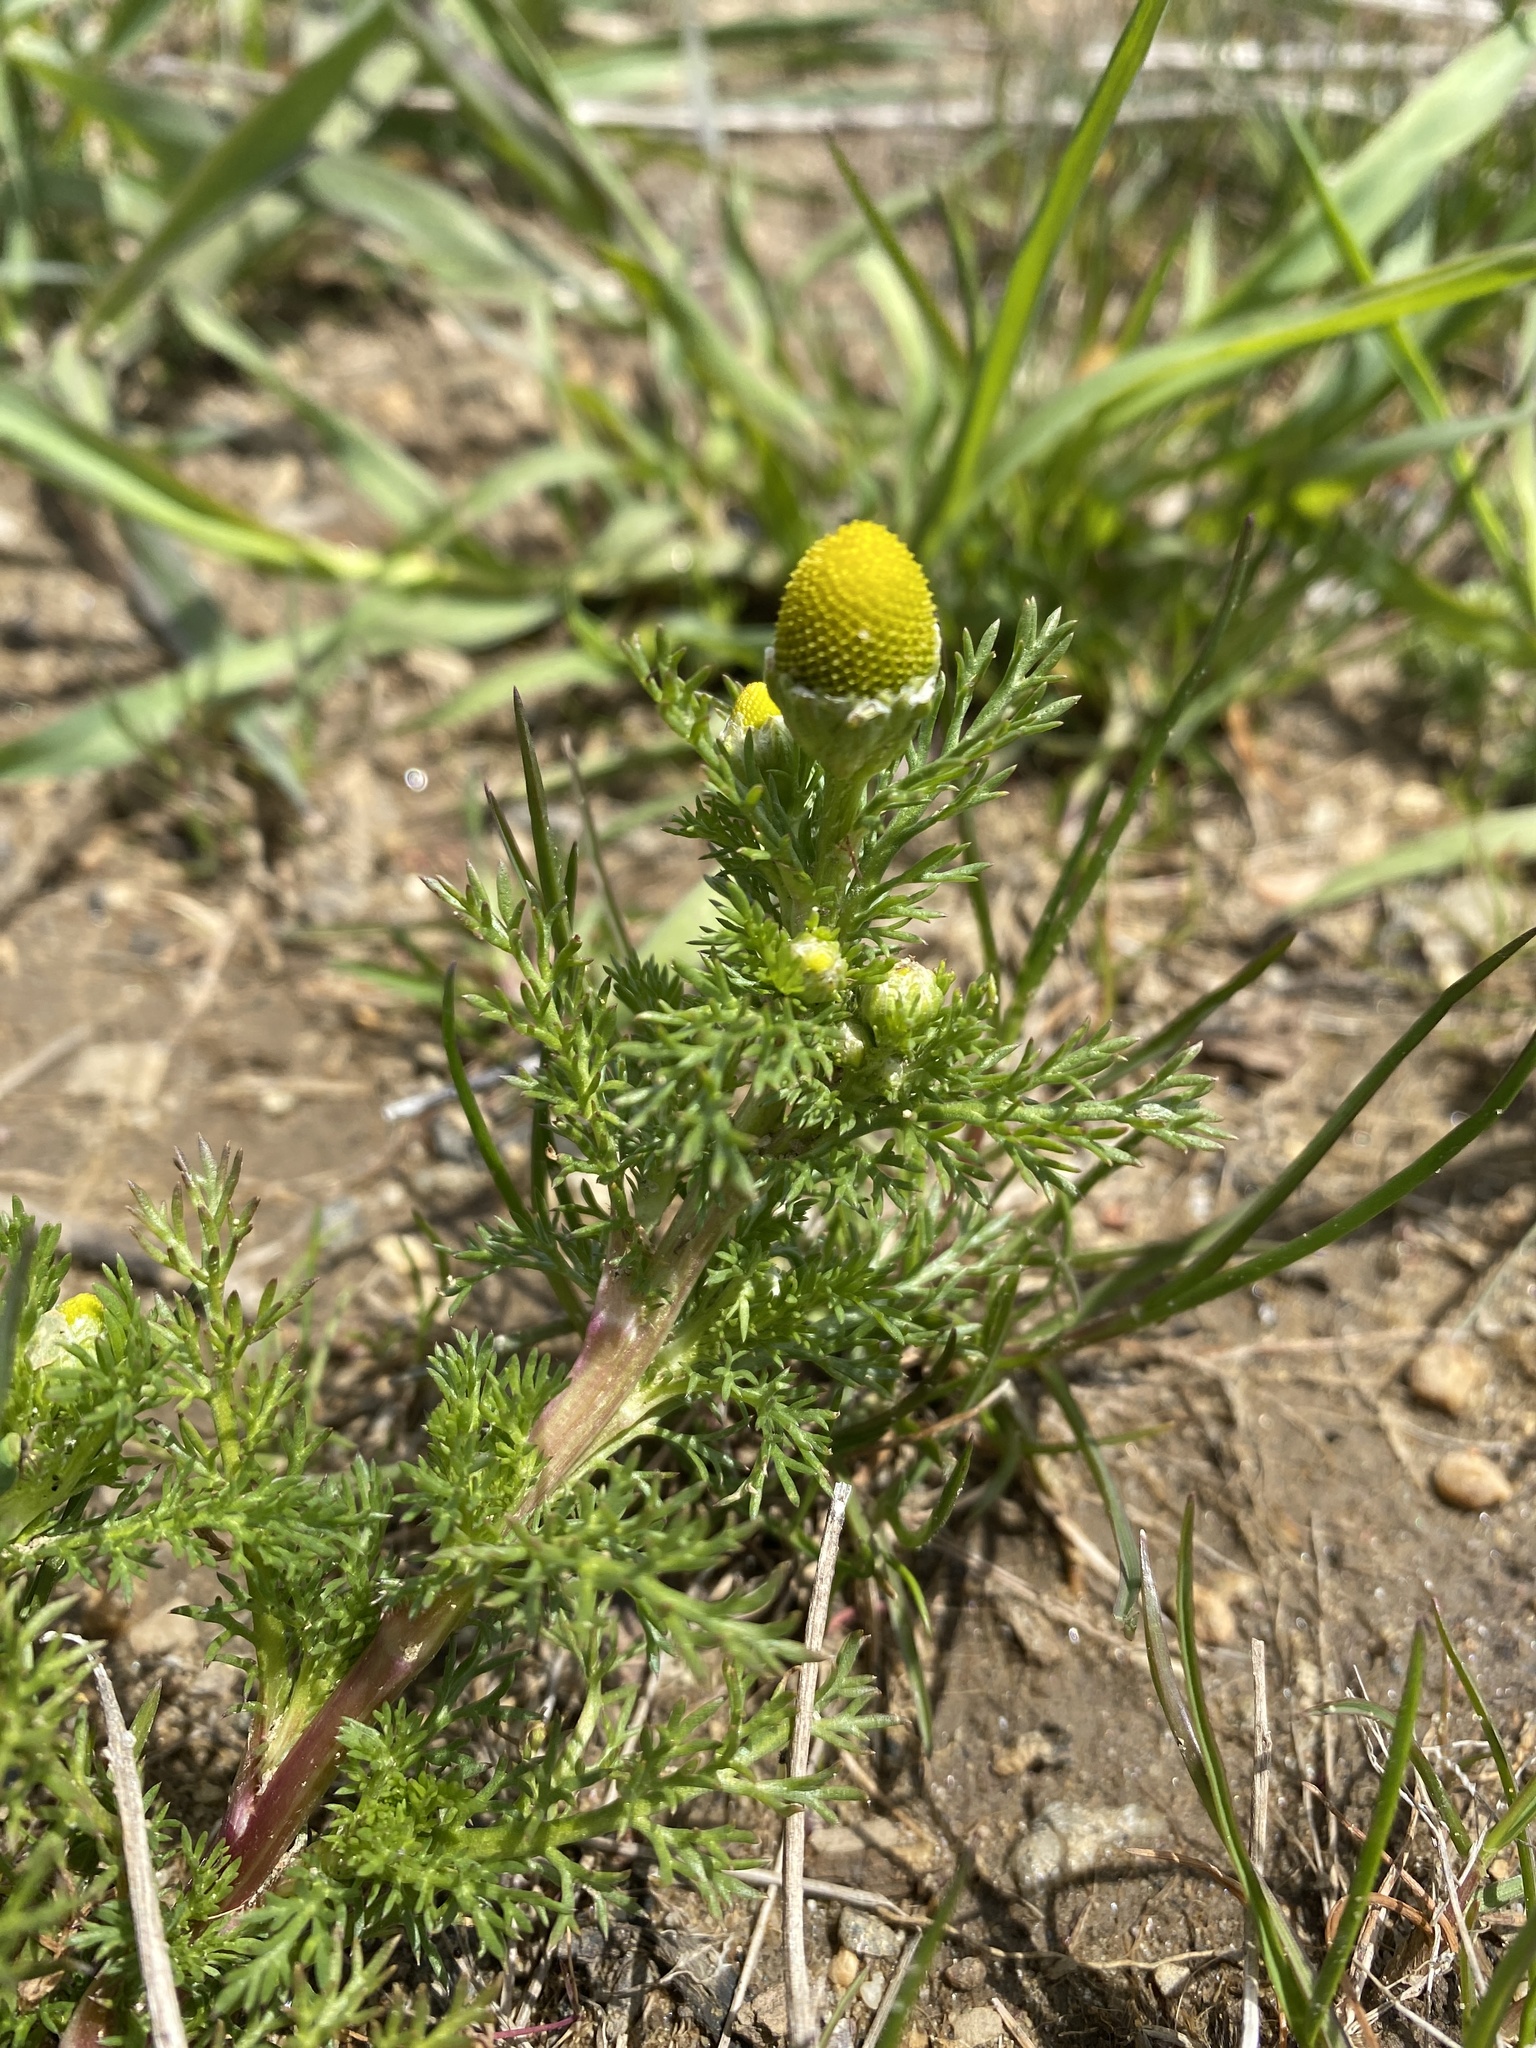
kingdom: Plantae
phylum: Tracheophyta
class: Magnoliopsida
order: Asterales
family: Asteraceae
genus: Matricaria
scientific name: Matricaria discoidea
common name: Disc mayweed
